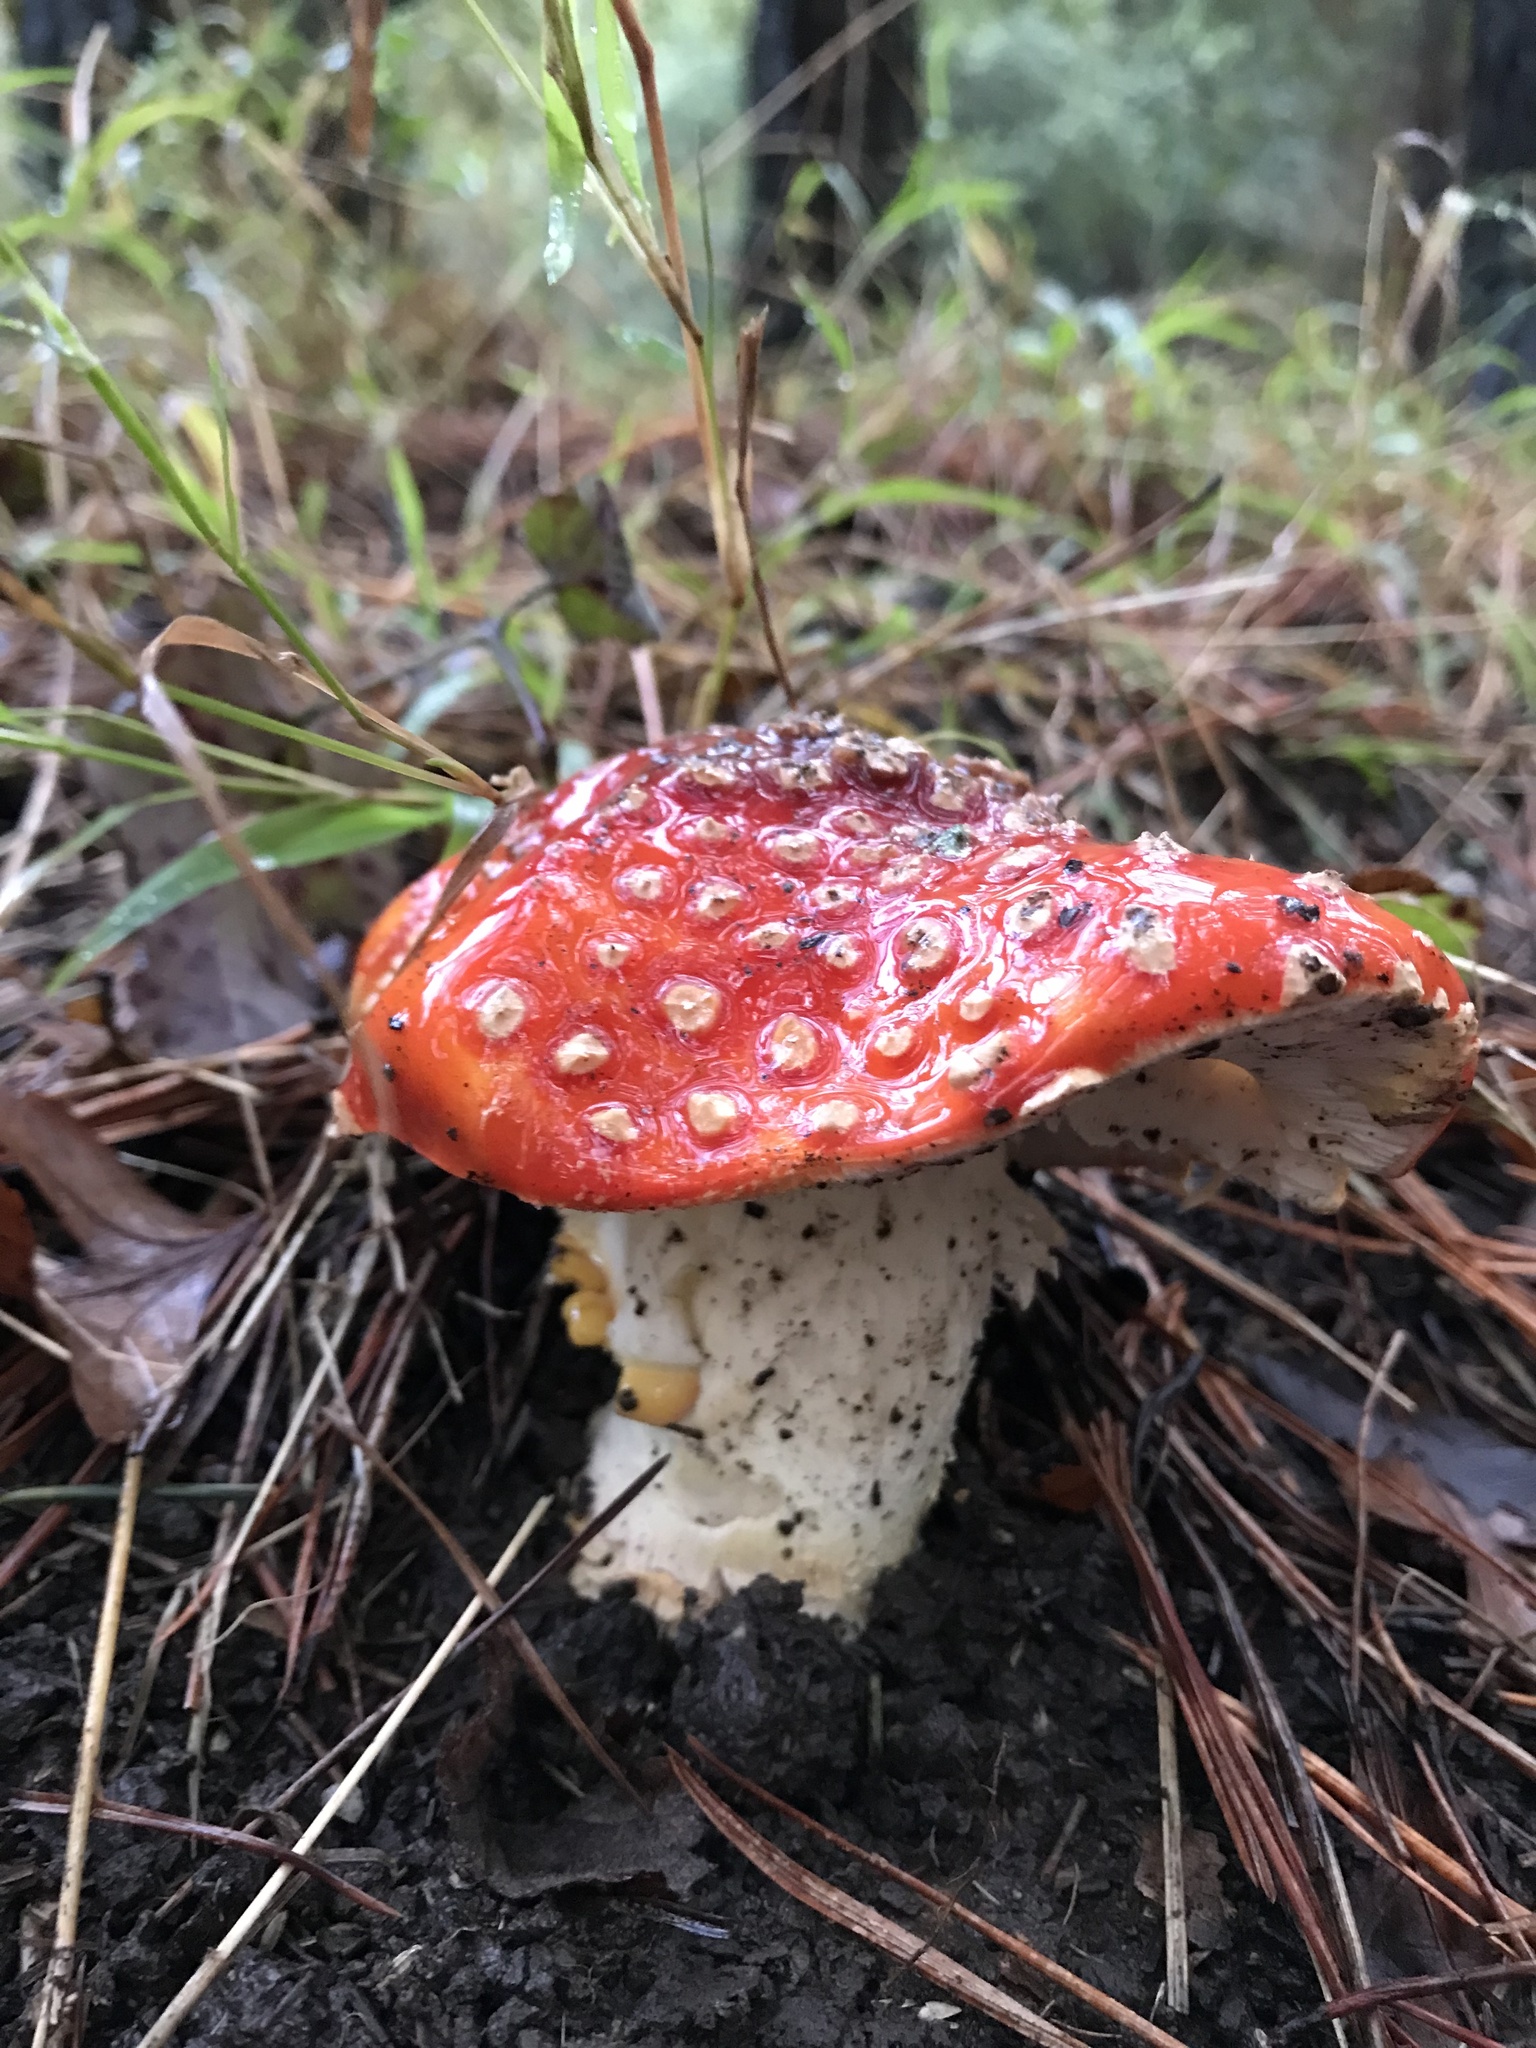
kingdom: Fungi
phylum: Basidiomycota
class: Agaricomycetes
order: Agaricales
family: Amanitaceae
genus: Amanita
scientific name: Amanita muscaria
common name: Fly agaric
